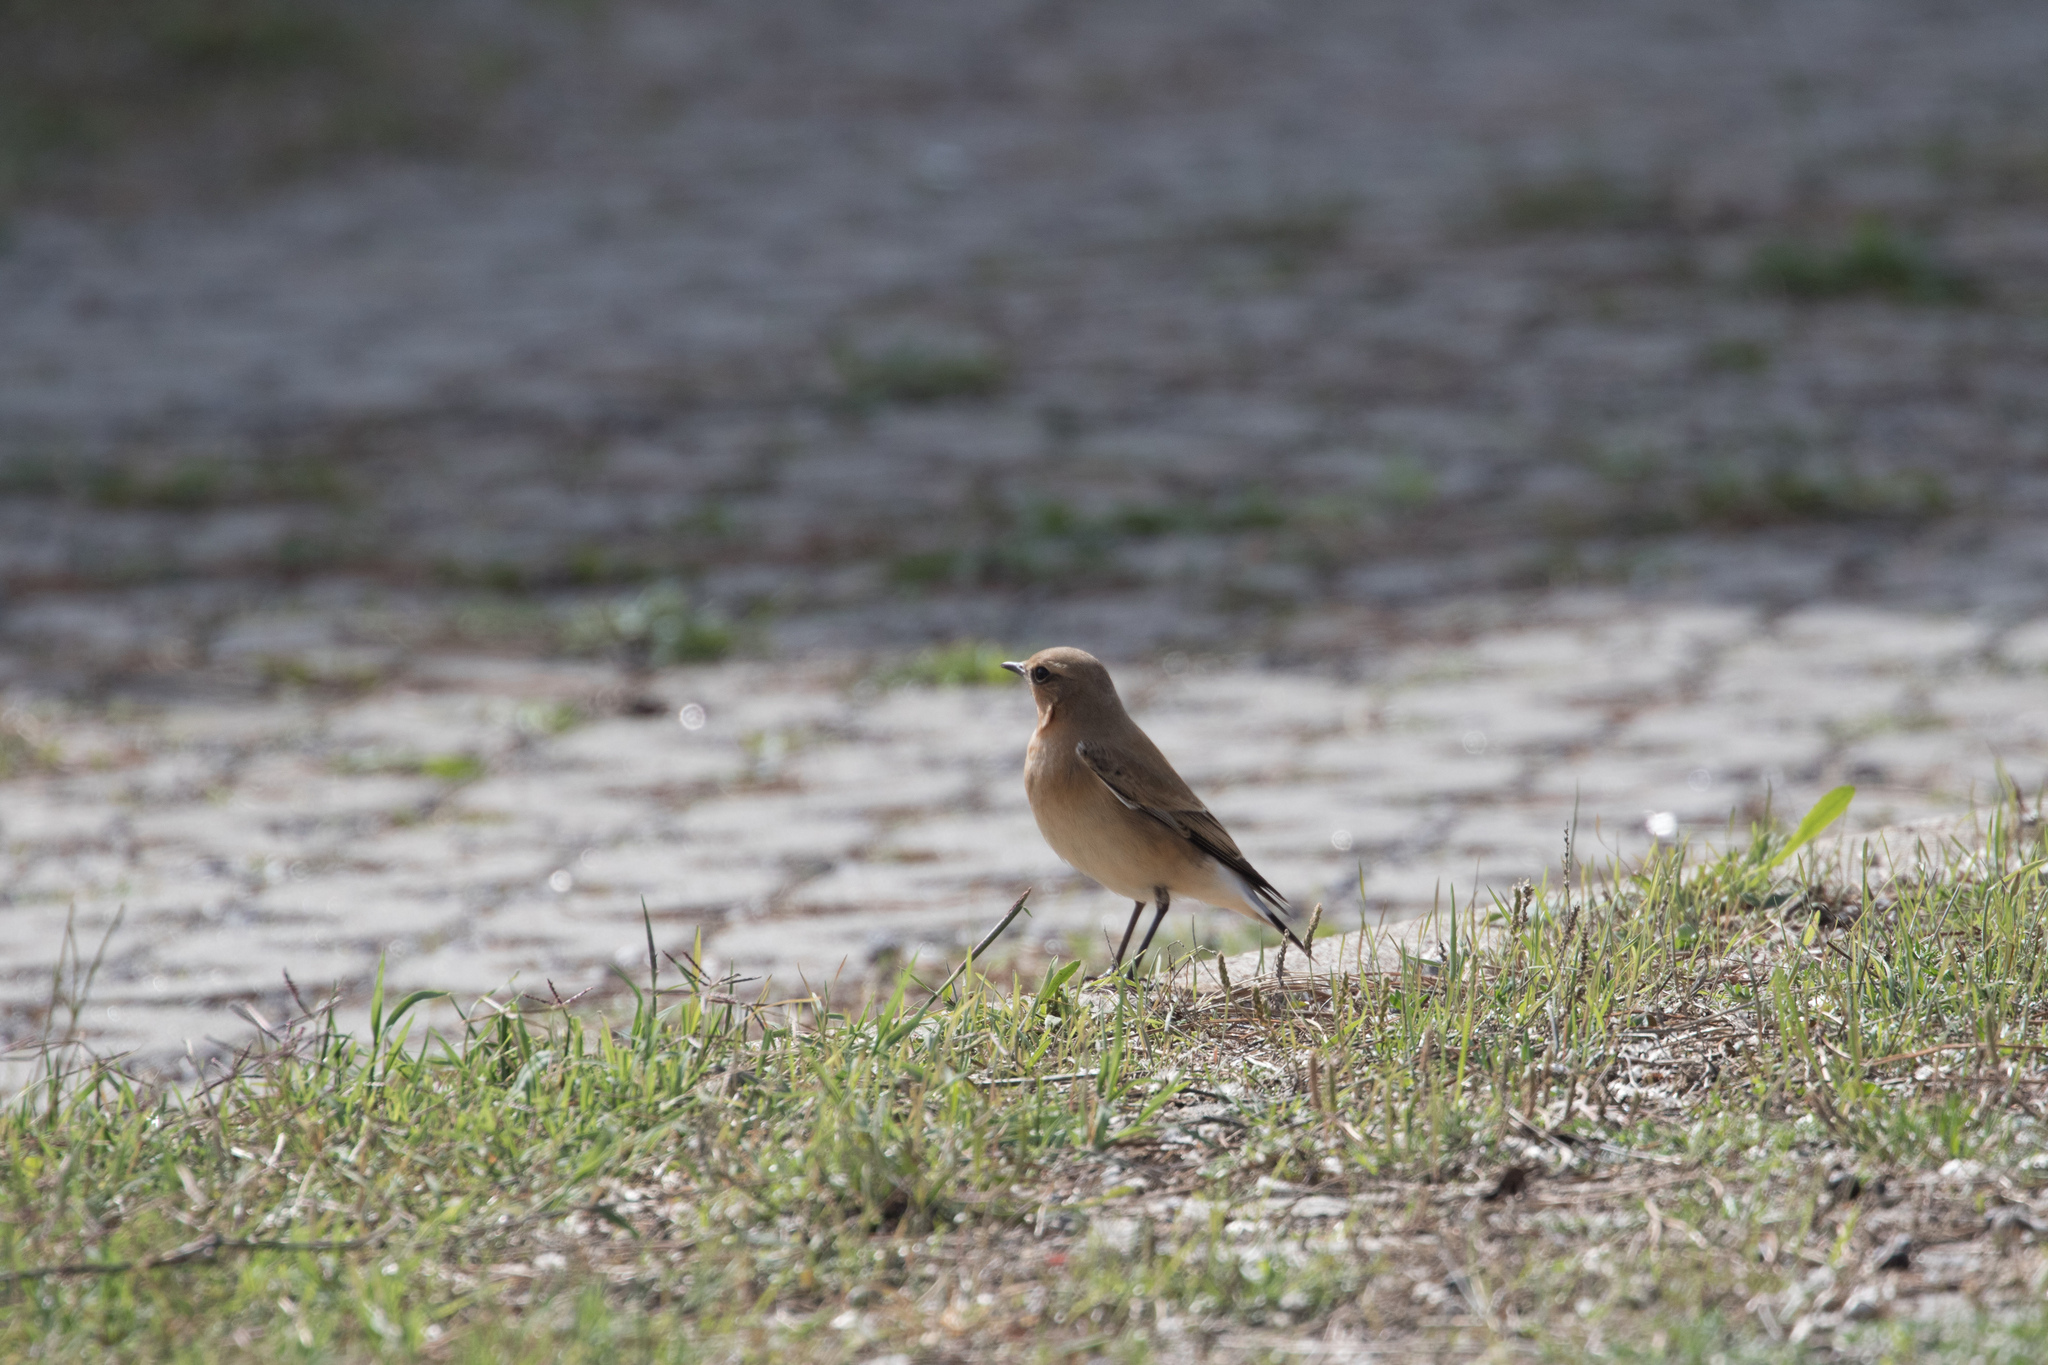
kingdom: Animalia
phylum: Chordata
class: Aves
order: Passeriformes
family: Muscicapidae
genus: Oenanthe
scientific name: Oenanthe oenanthe
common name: Northern wheatear
